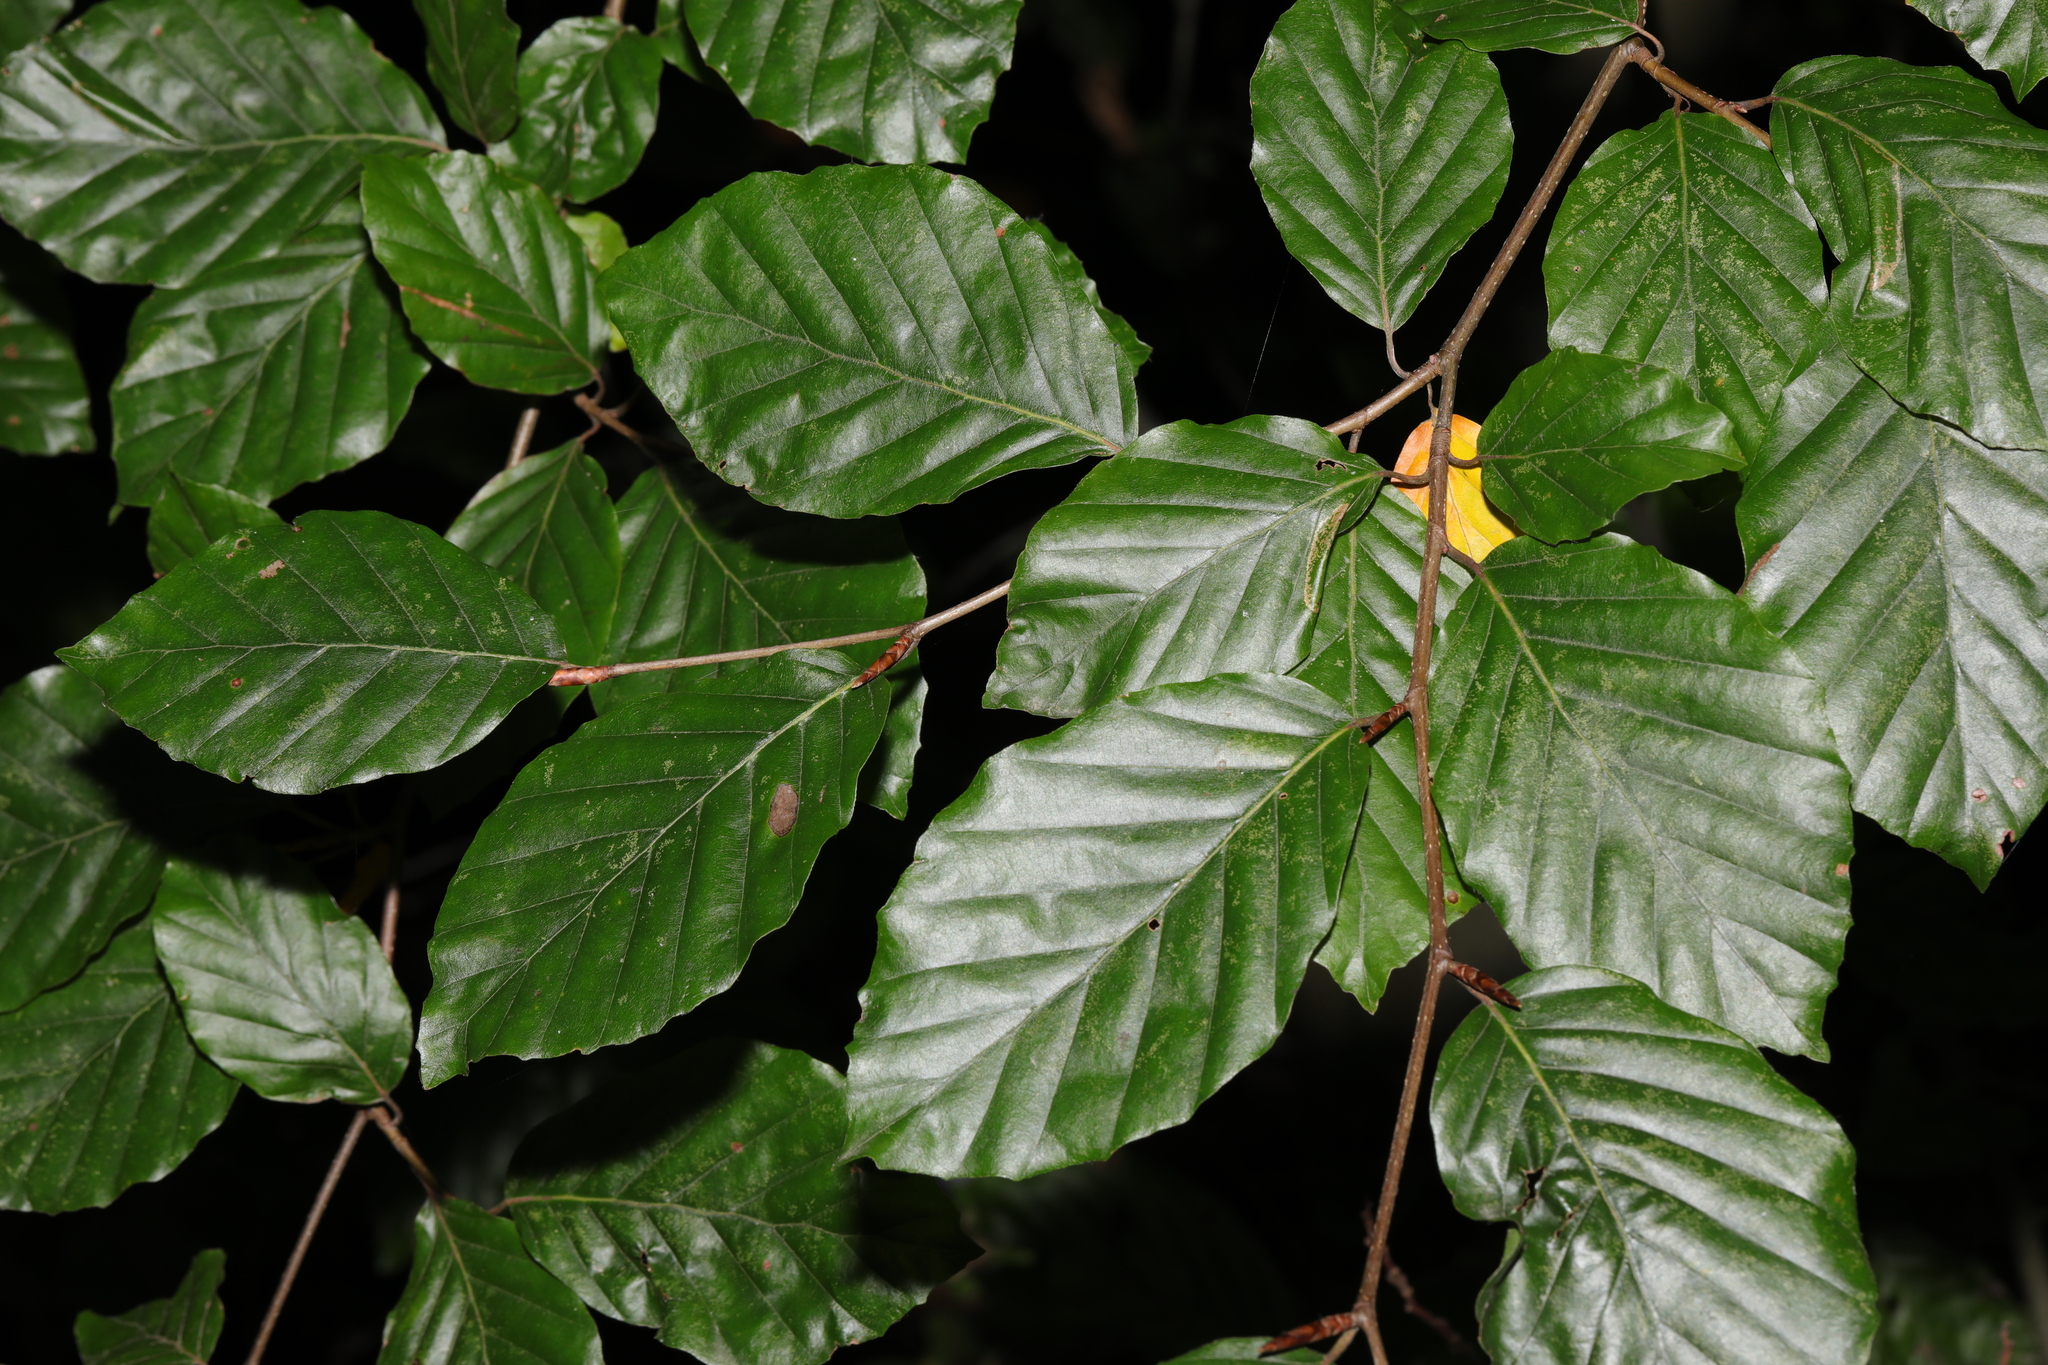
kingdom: Plantae
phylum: Tracheophyta
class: Magnoliopsida
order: Fagales
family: Fagaceae
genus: Fagus
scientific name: Fagus sylvatica
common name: Beech
